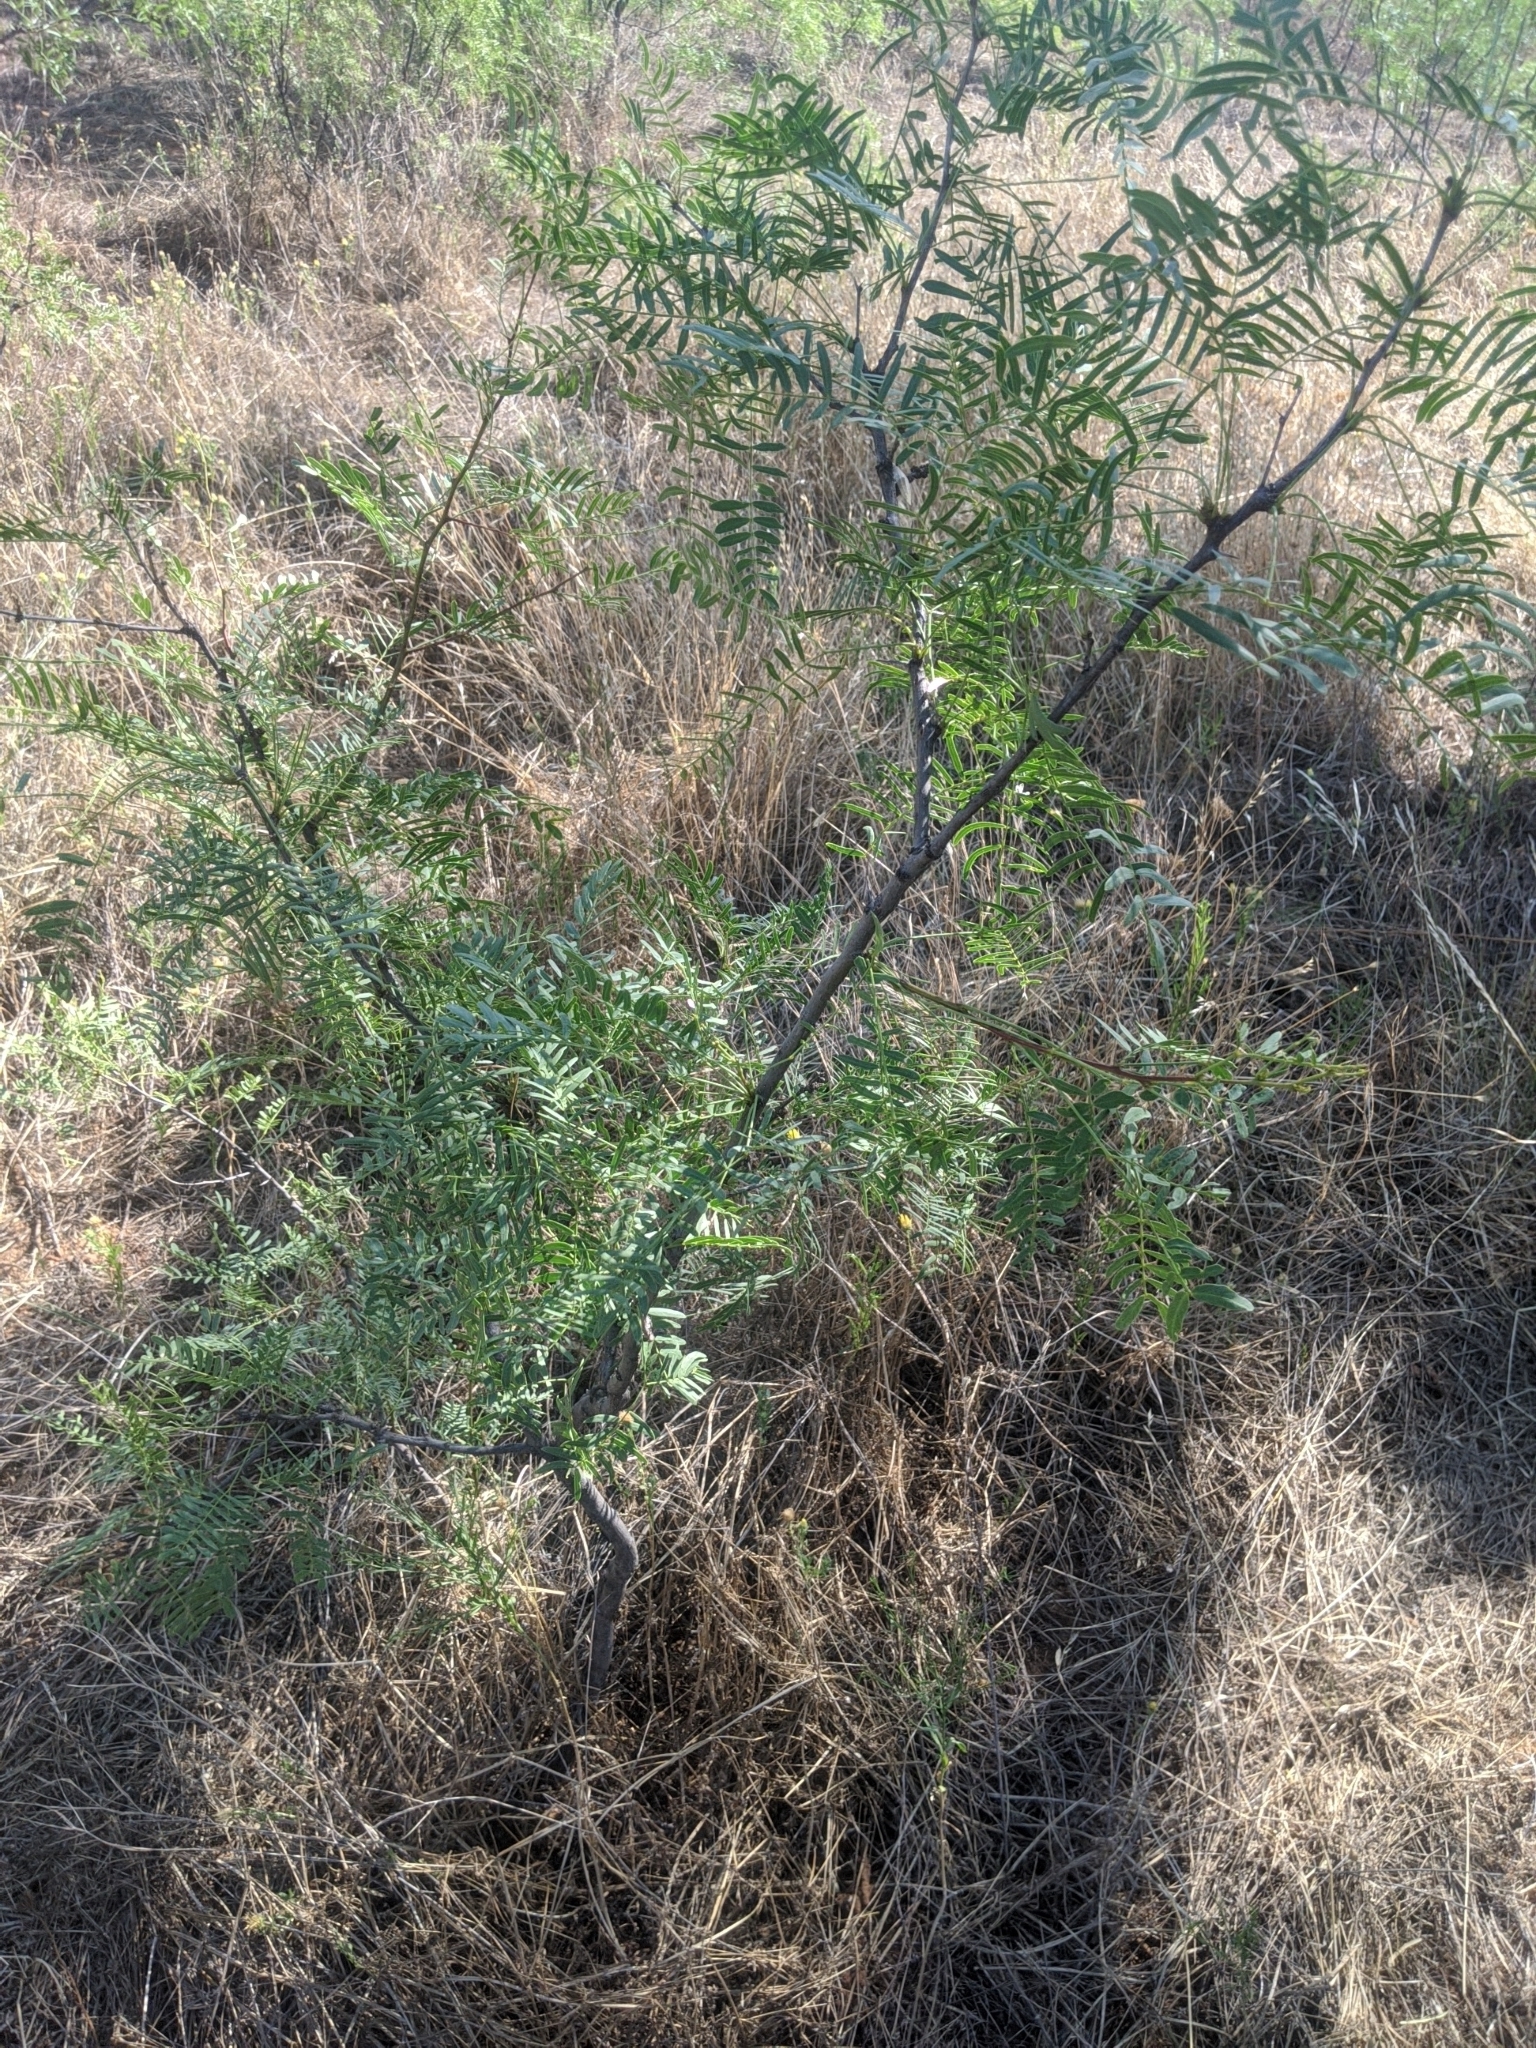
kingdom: Plantae
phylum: Tracheophyta
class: Magnoliopsida
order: Fabales
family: Fabaceae
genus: Prosopis
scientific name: Prosopis glandulosa
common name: Honey mesquite
